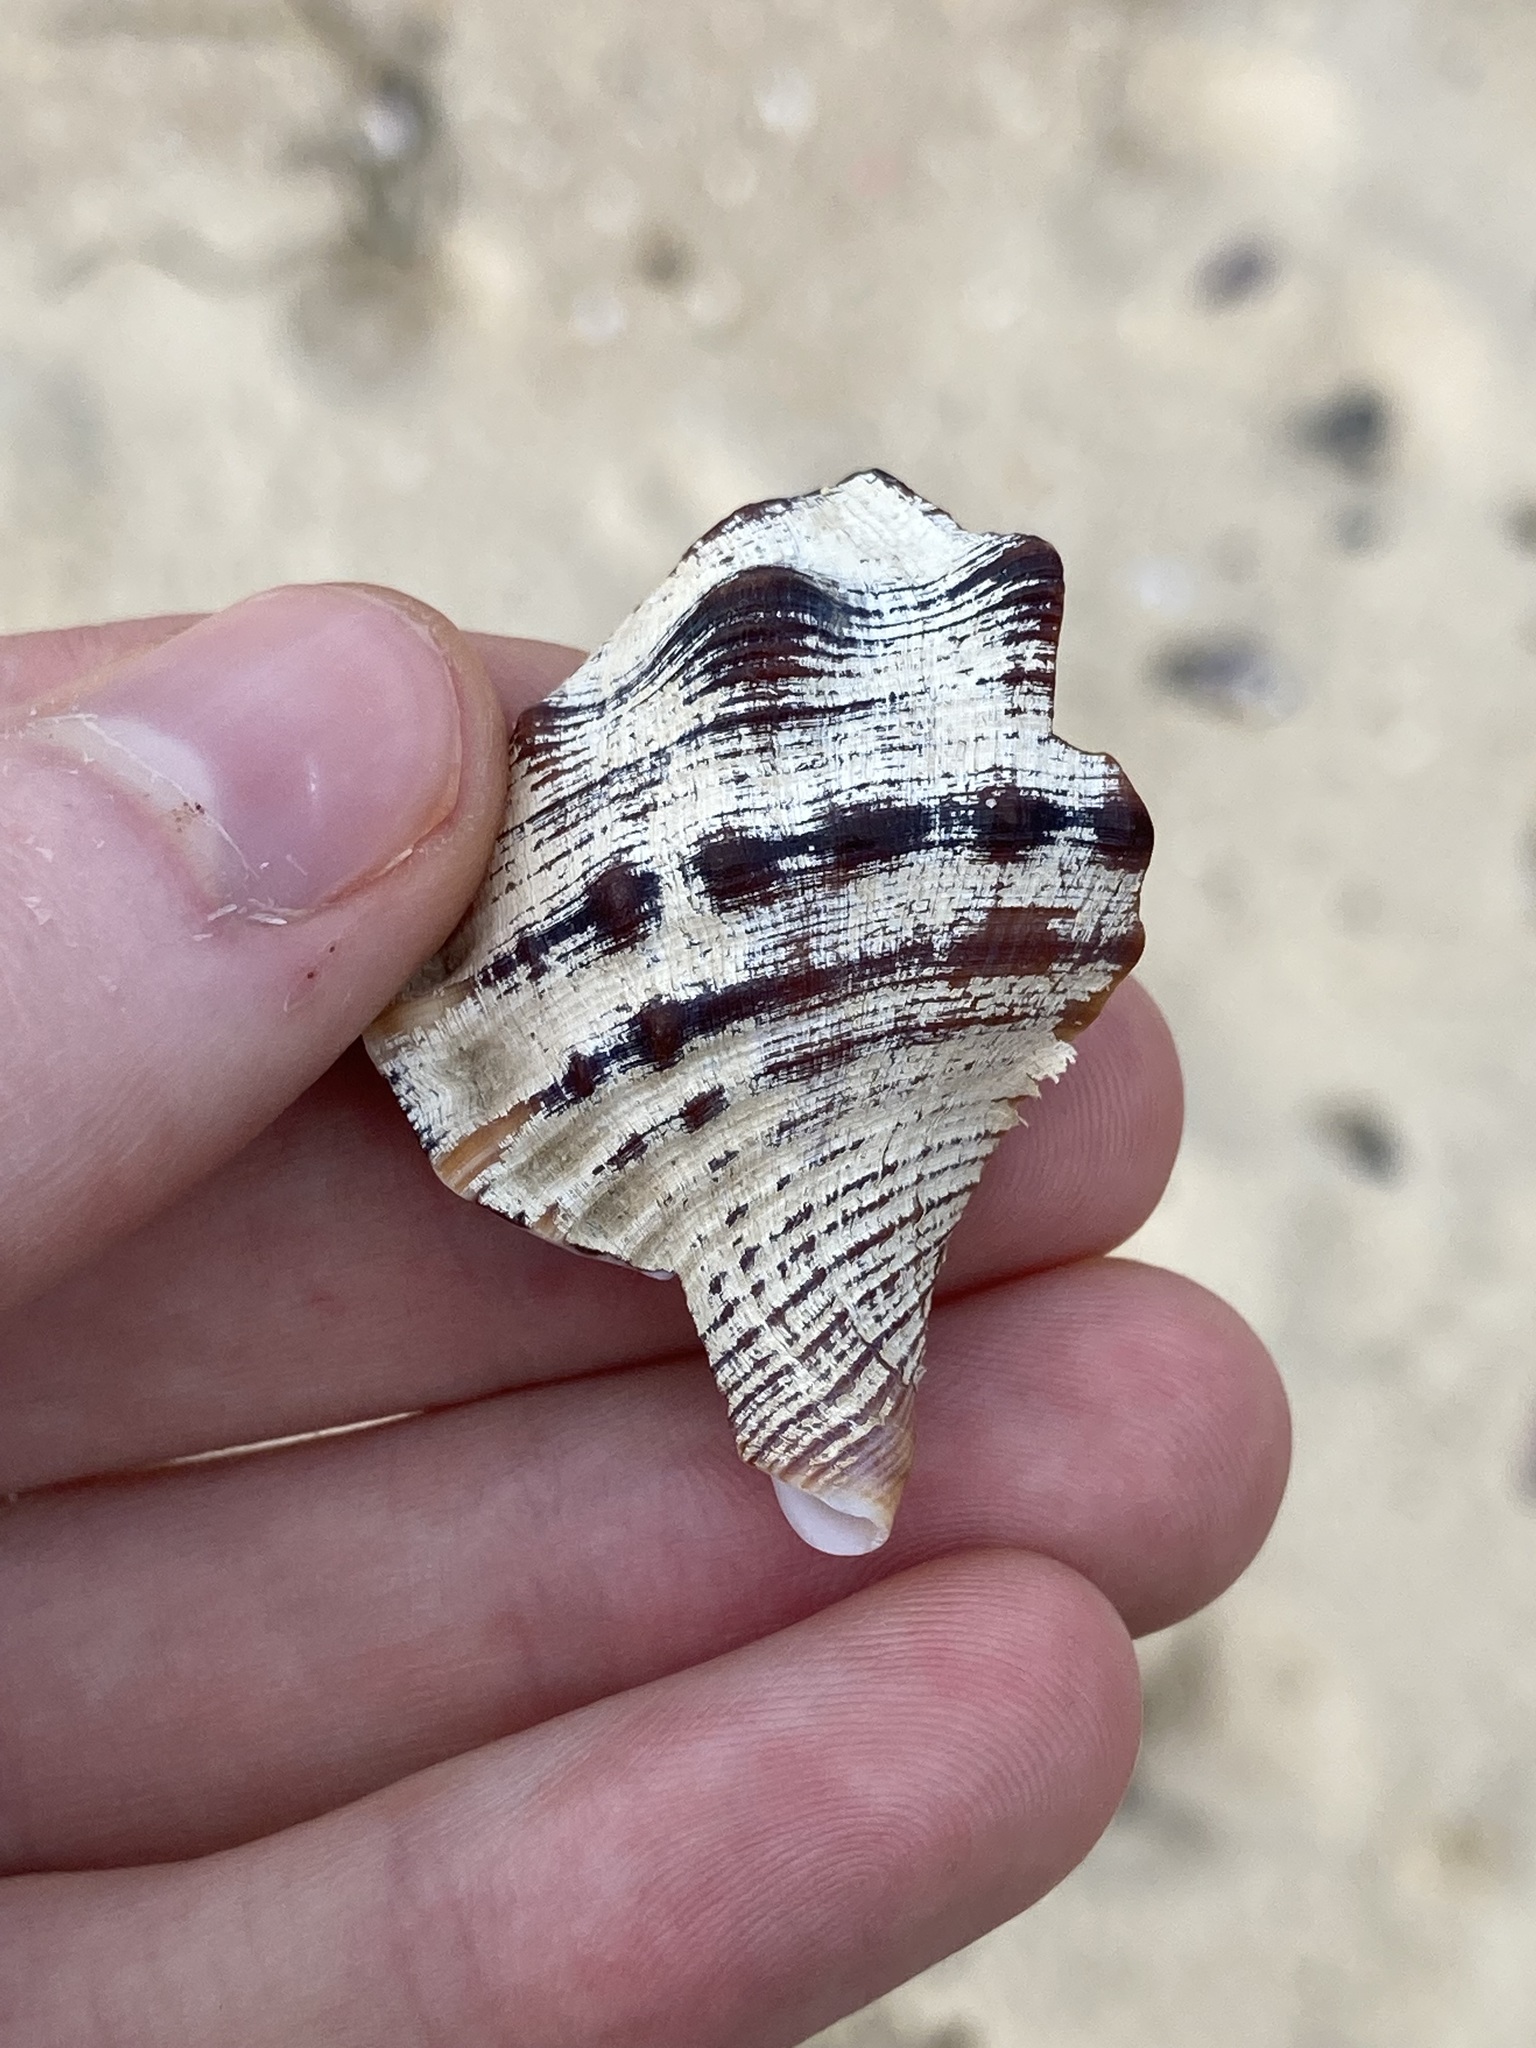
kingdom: Animalia
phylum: Mollusca
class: Gastropoda
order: Littorinimorpha
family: Ranellidae
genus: Ranella
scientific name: Ranella australasia
